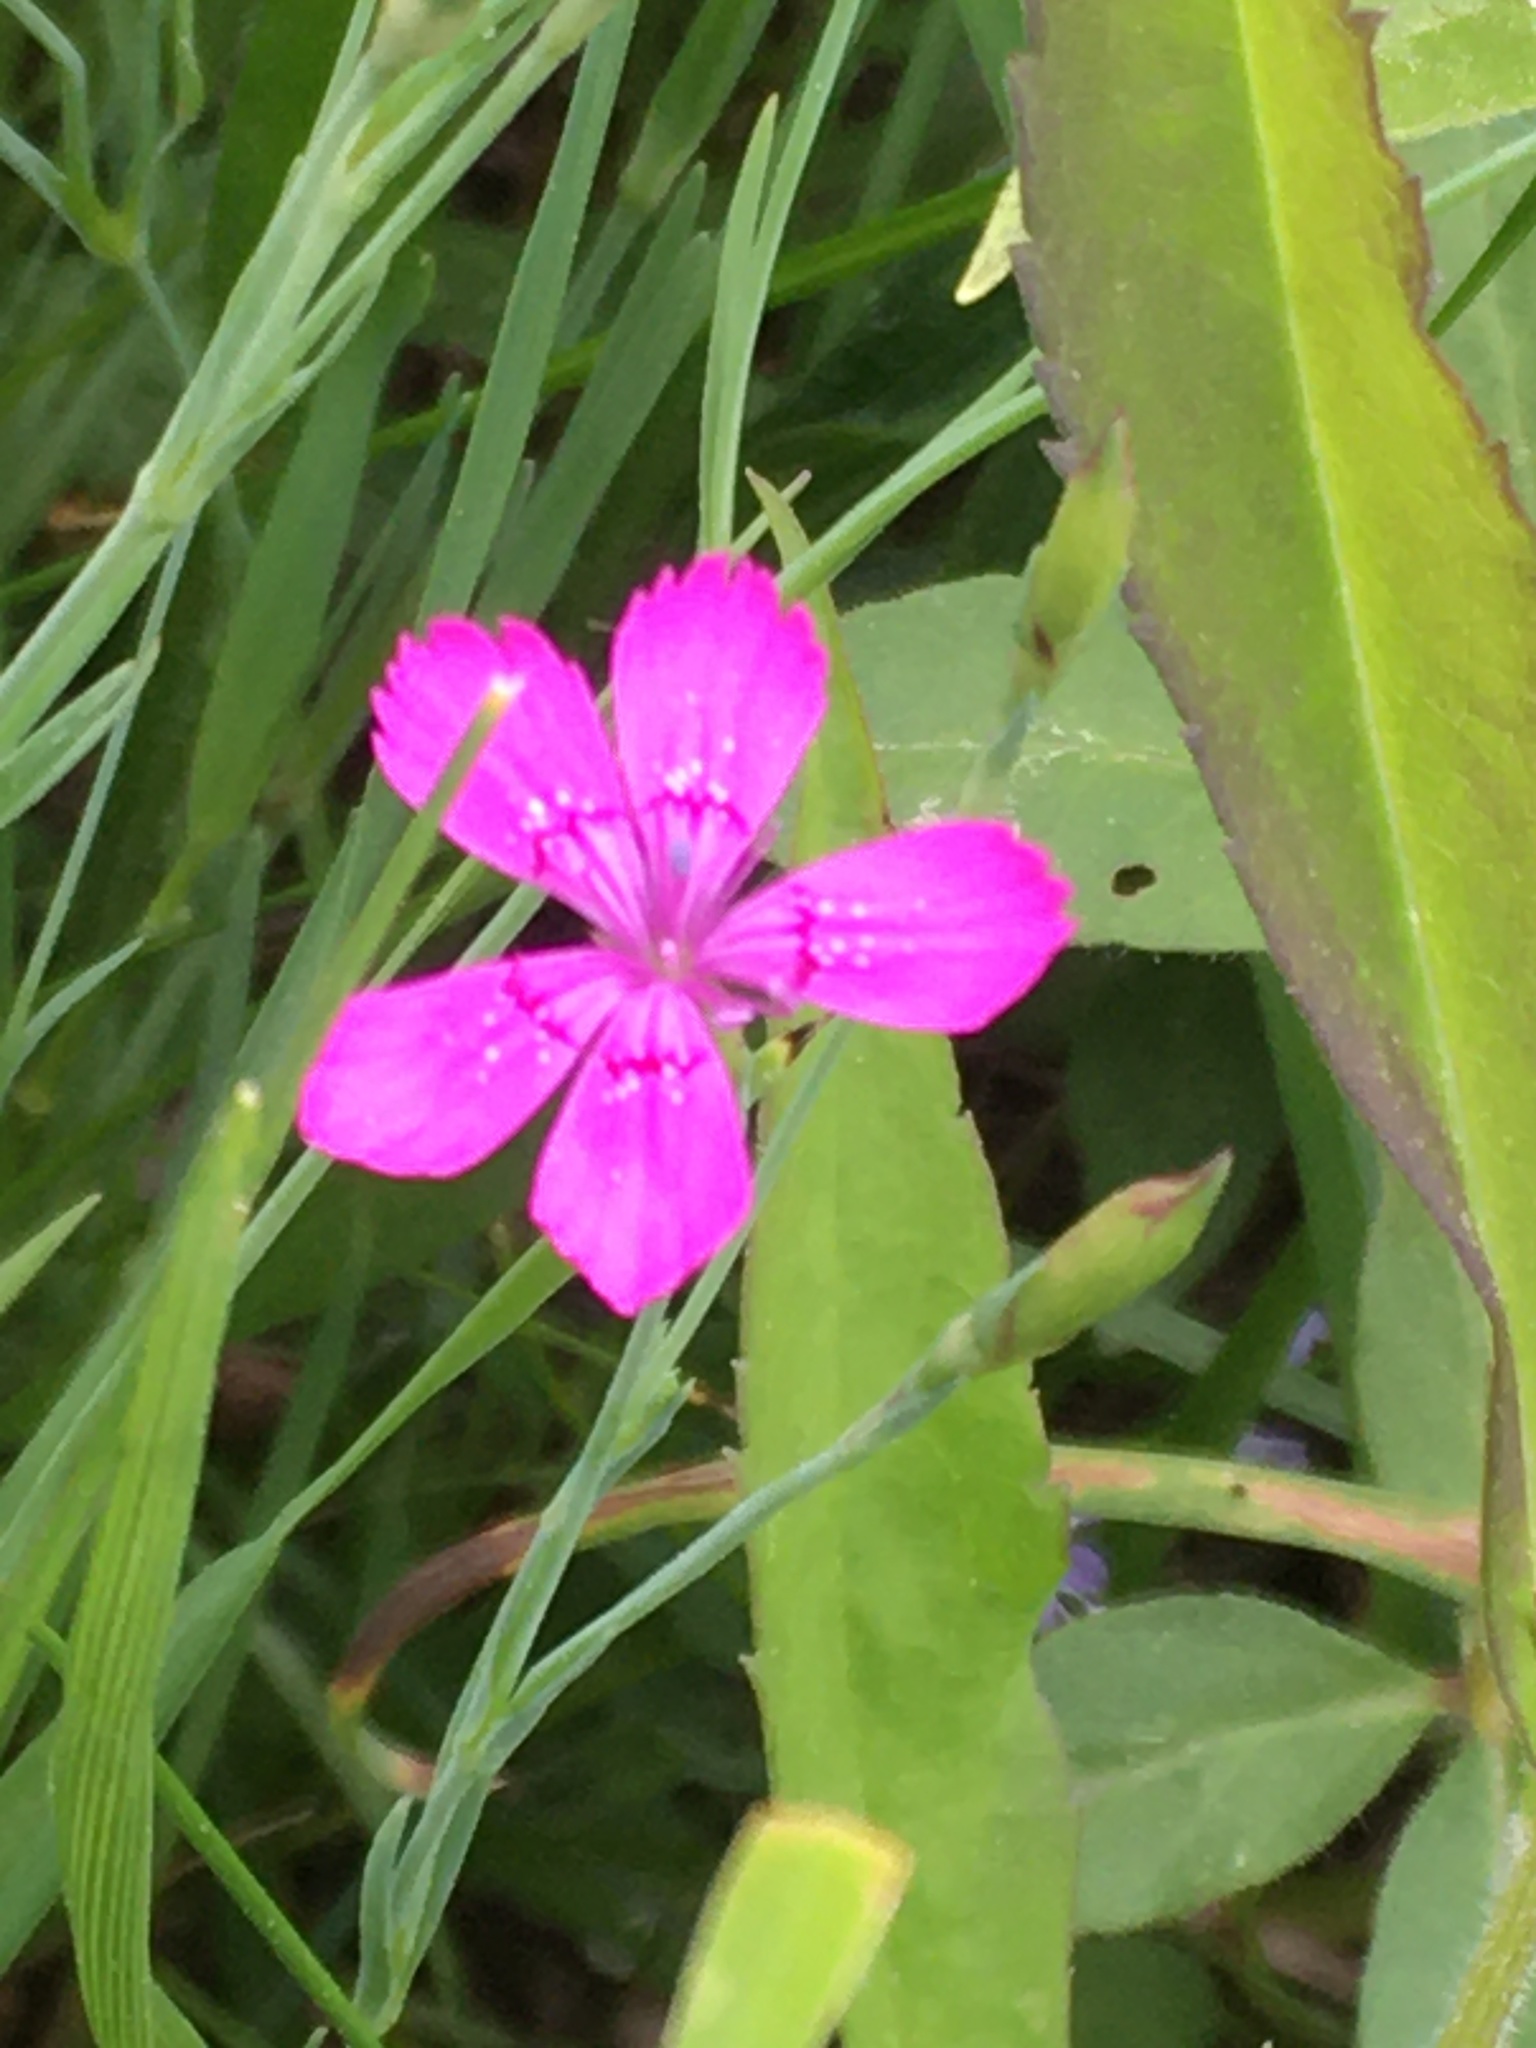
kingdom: Plantae
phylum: Tracheophyta
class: Magnoliopsida
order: Caryophyllales
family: Caryophyllaceae
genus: Dianthus
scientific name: Dianthus deltoides
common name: Maiden pink
